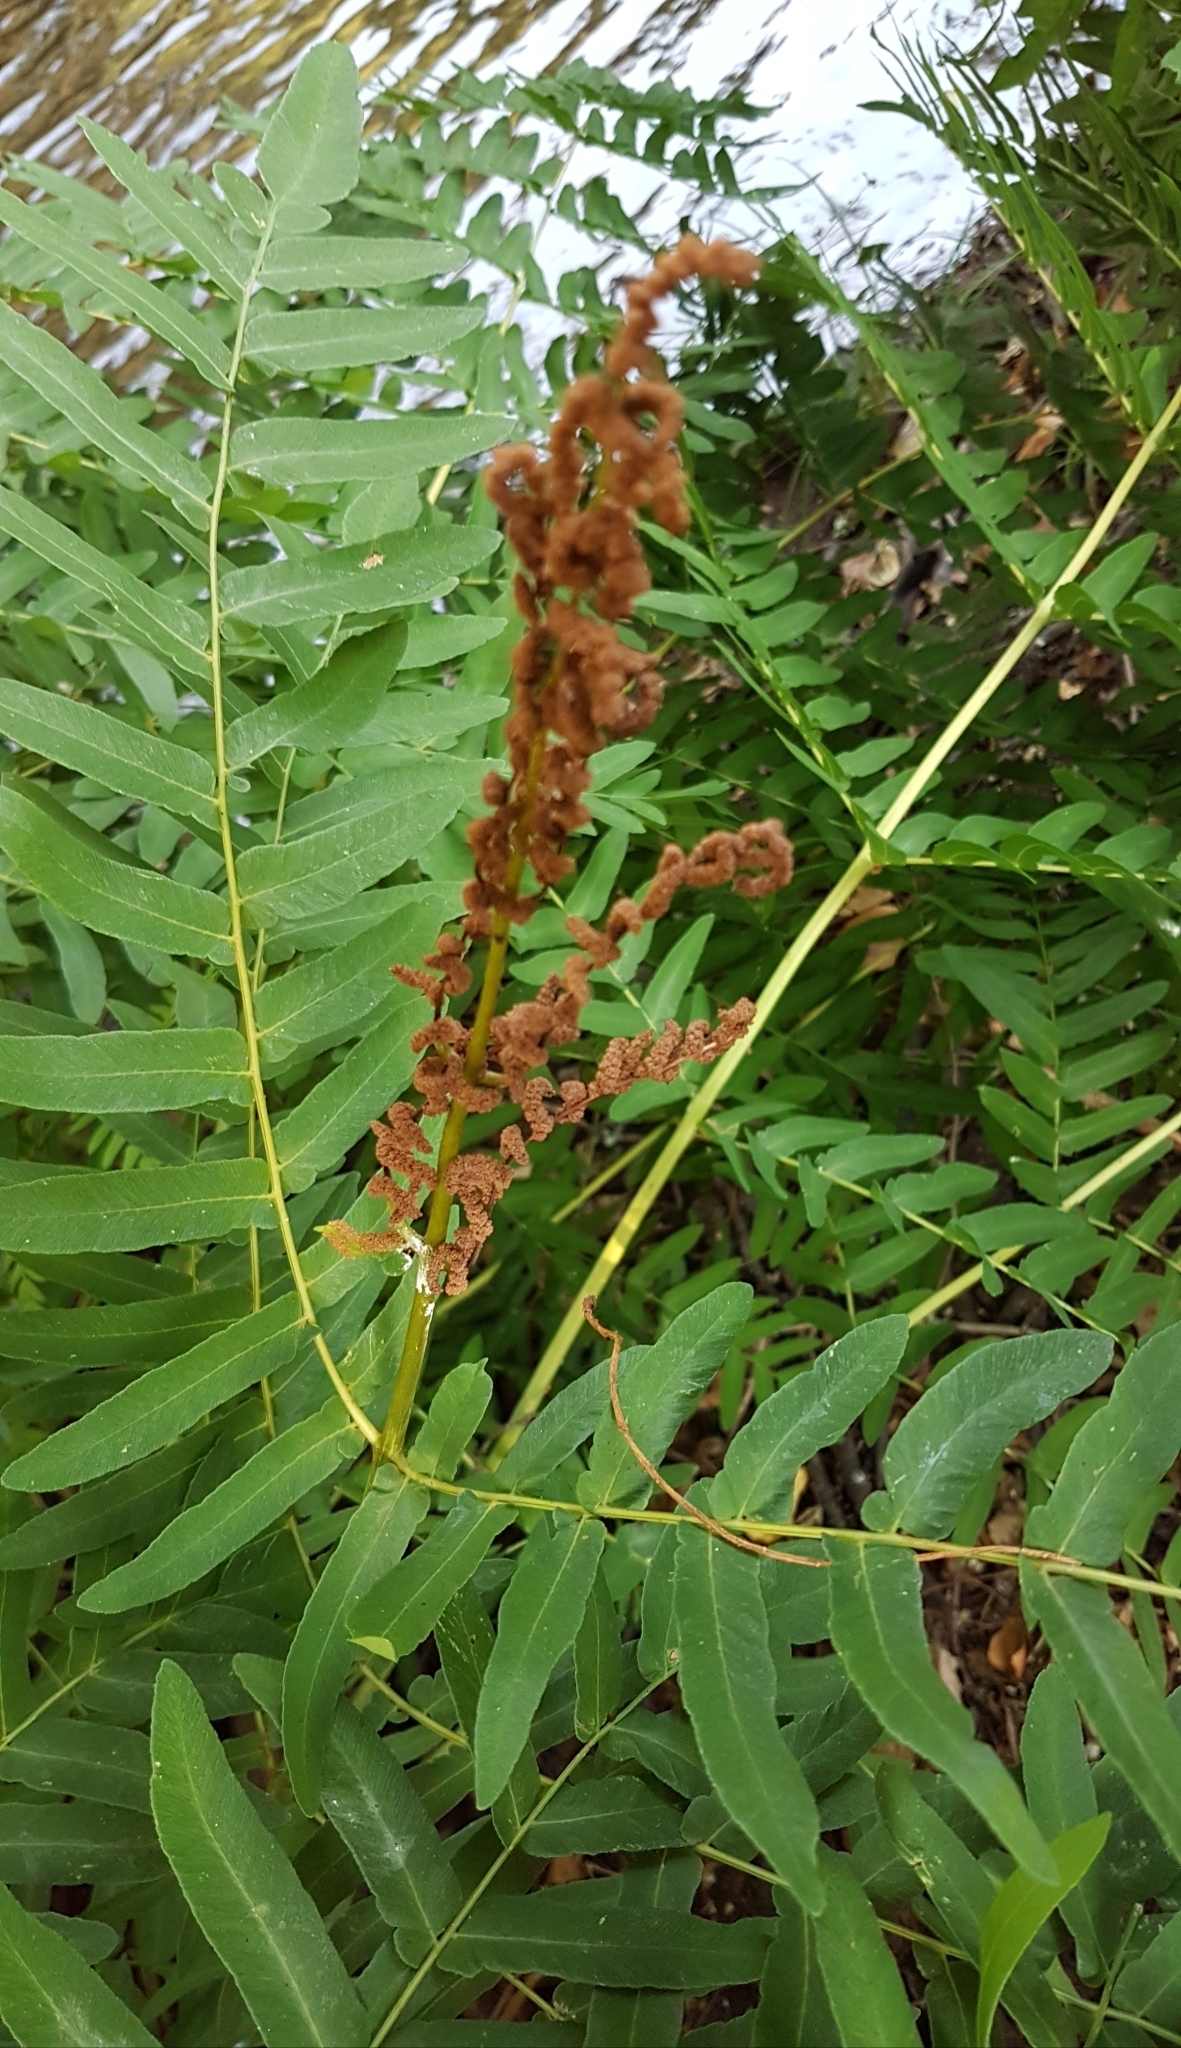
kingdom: Plantae
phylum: Tracheophyta
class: Polypodiopsida
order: Osmundales
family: Osmundaceae
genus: Osmunda
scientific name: Osmunda regalis
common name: Royal fern
